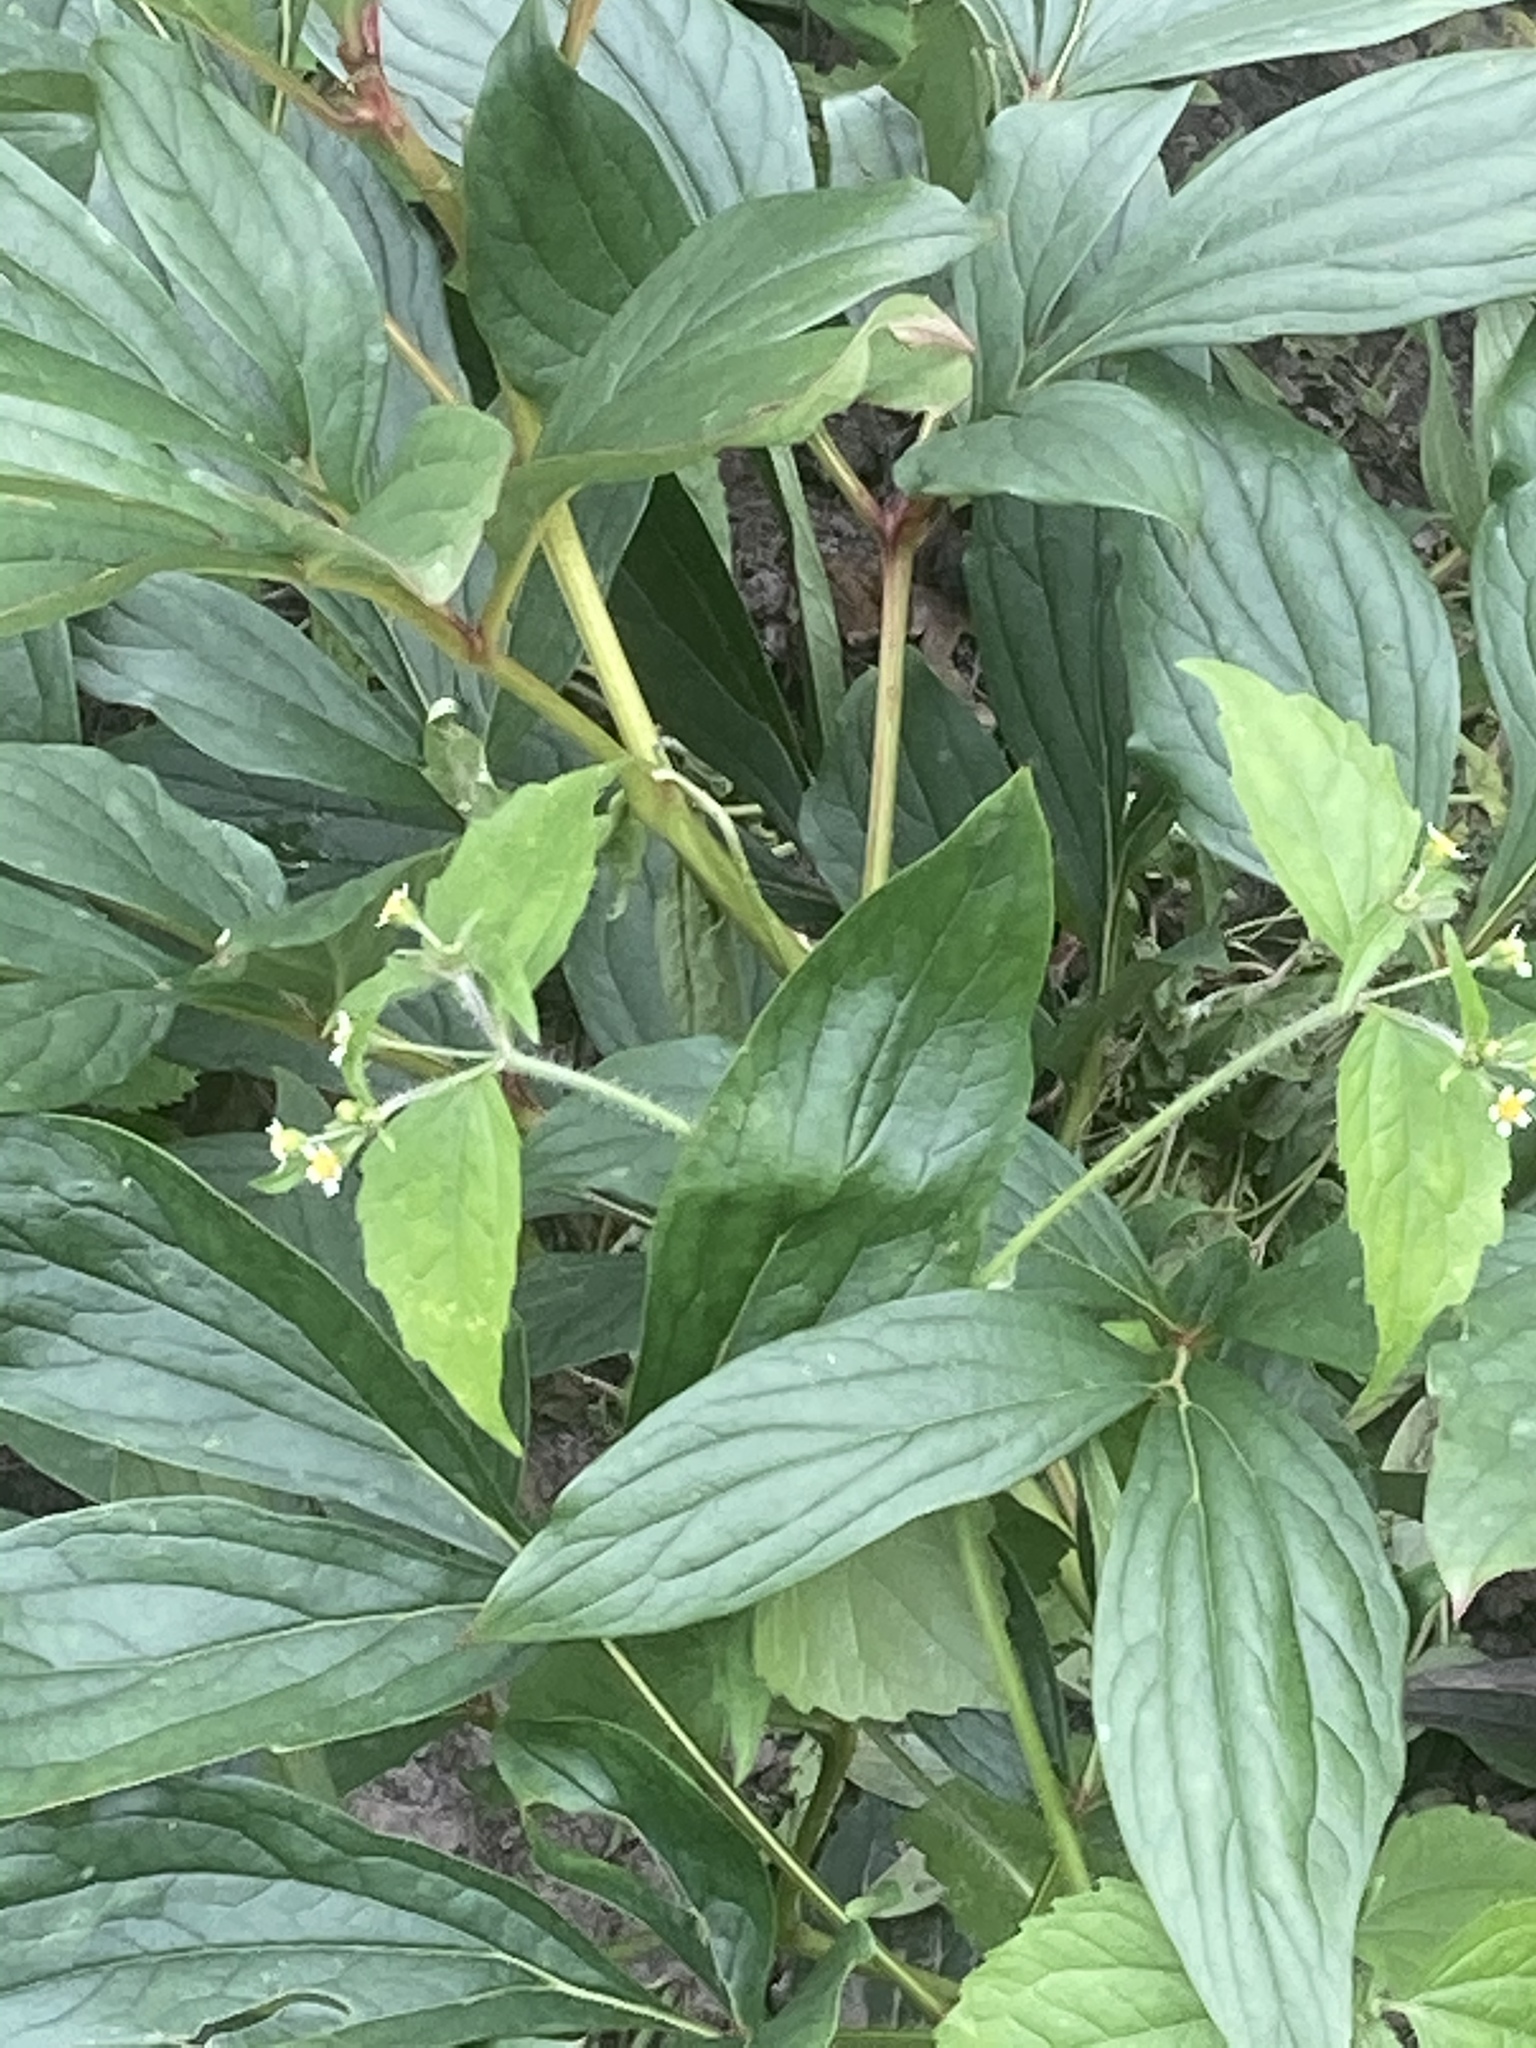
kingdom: Plantae
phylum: Tracheophyta
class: Magnoliopsida
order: Asterales
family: Asteraceae
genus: Galinsoga
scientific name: Galinsoga quadriradiata
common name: Shaggy soldier
